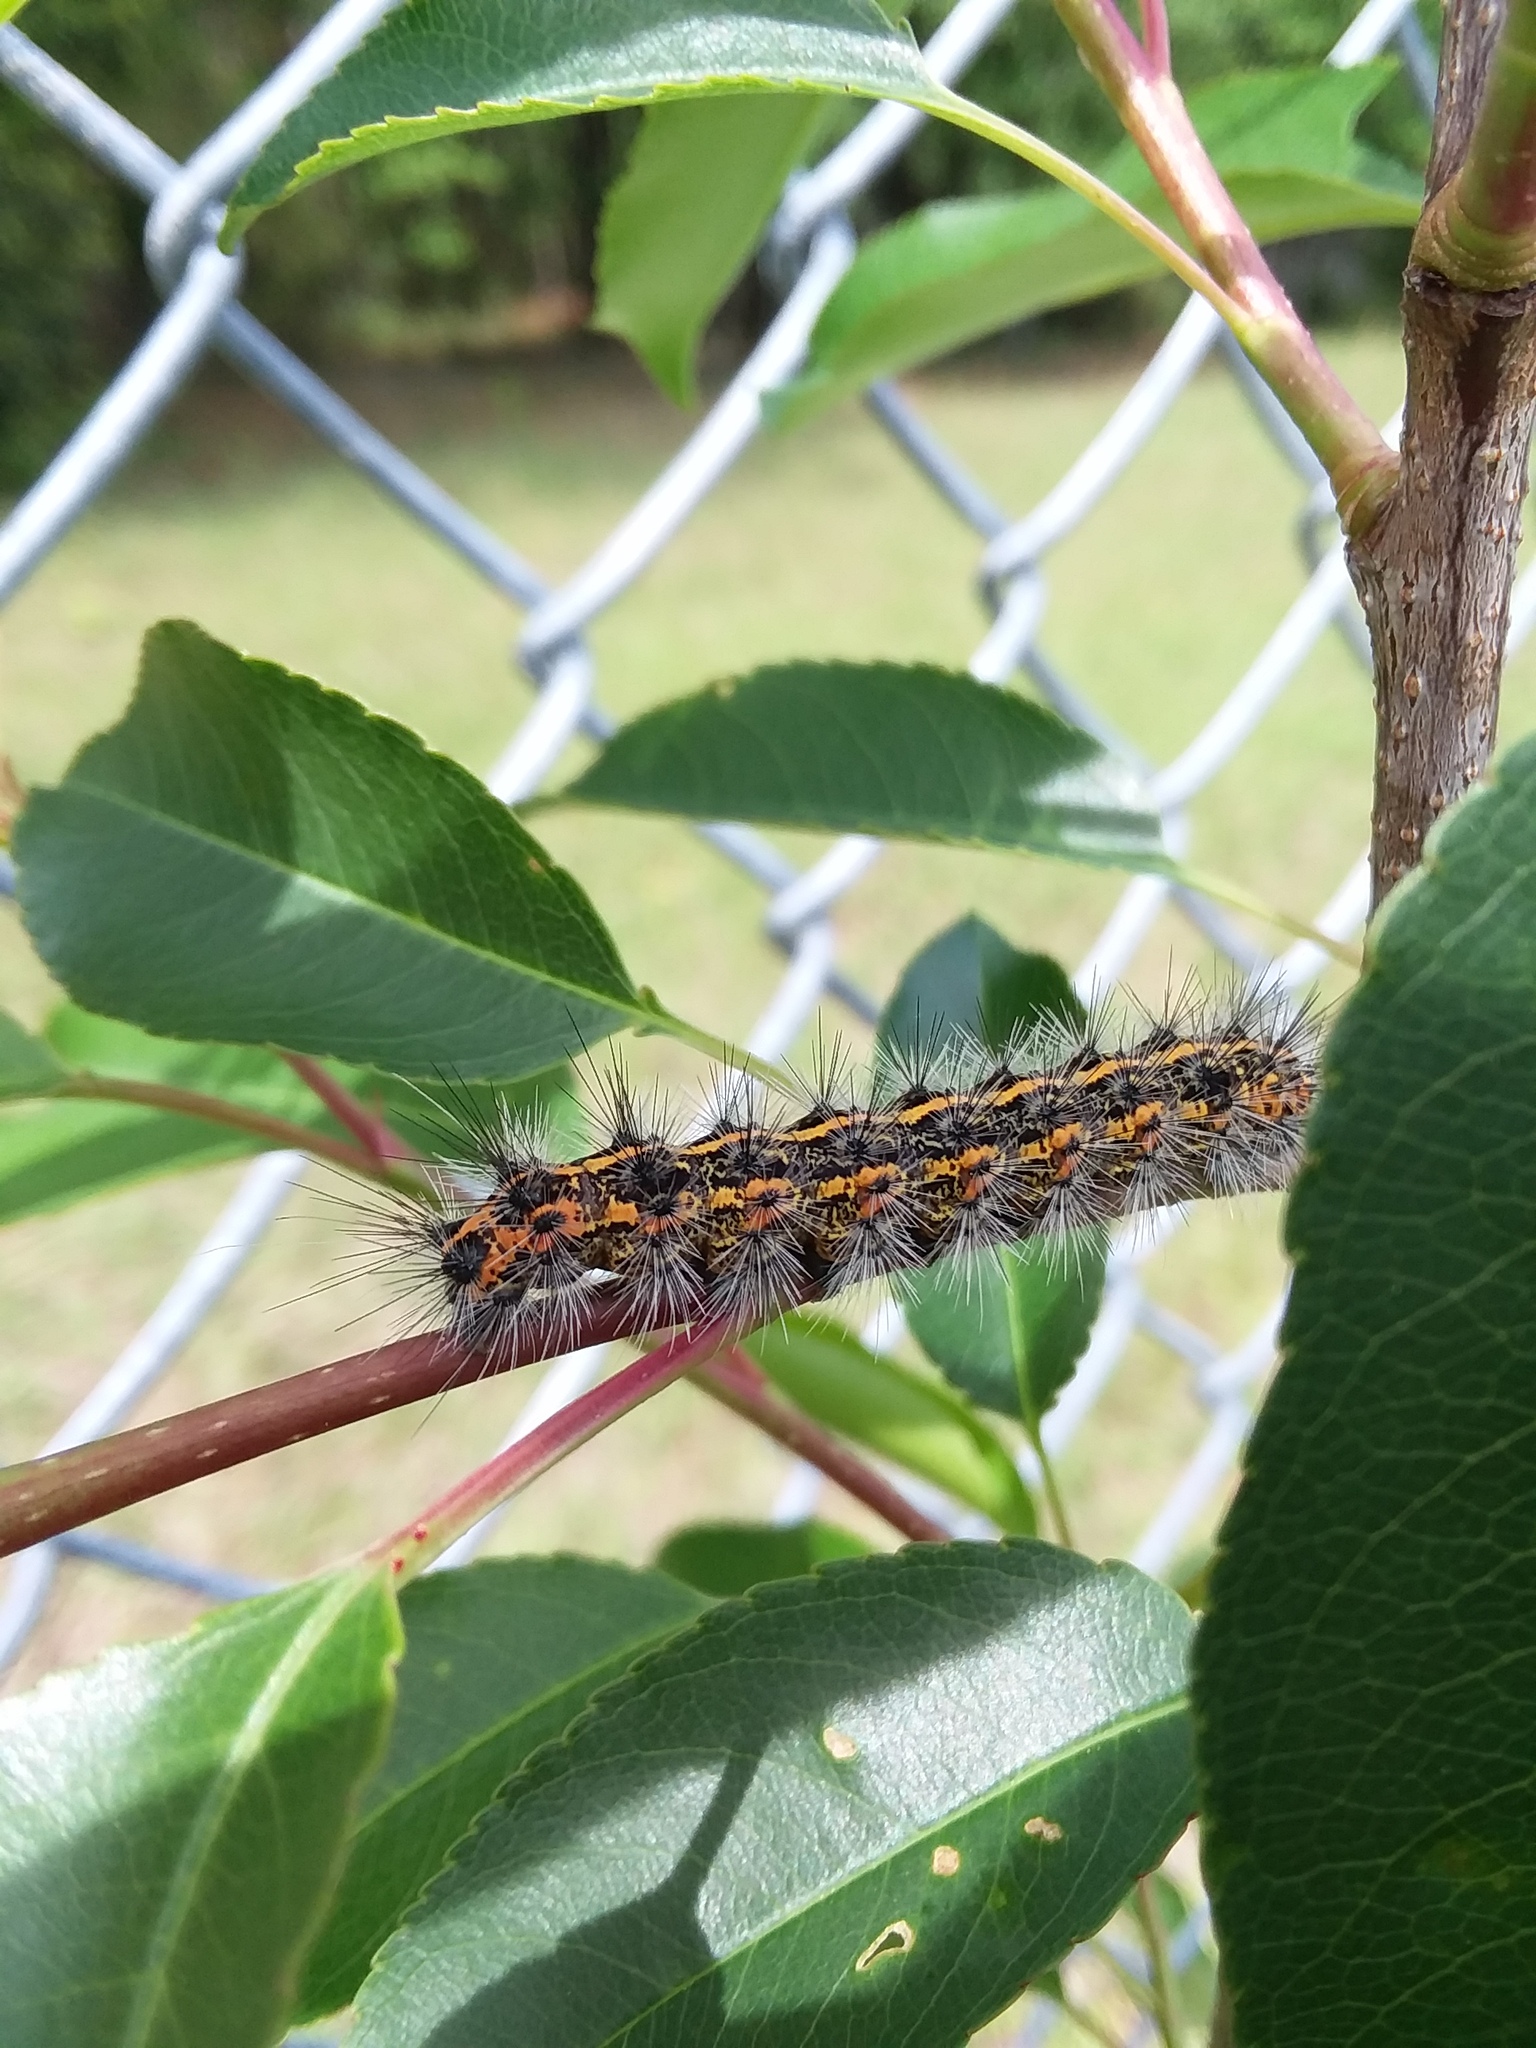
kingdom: Animalia
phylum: Arthropoda
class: Insecta
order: Lepidoptera
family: Erebidae
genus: Spilosoma
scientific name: Spilosoma dubia
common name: Dubious tiger moth
